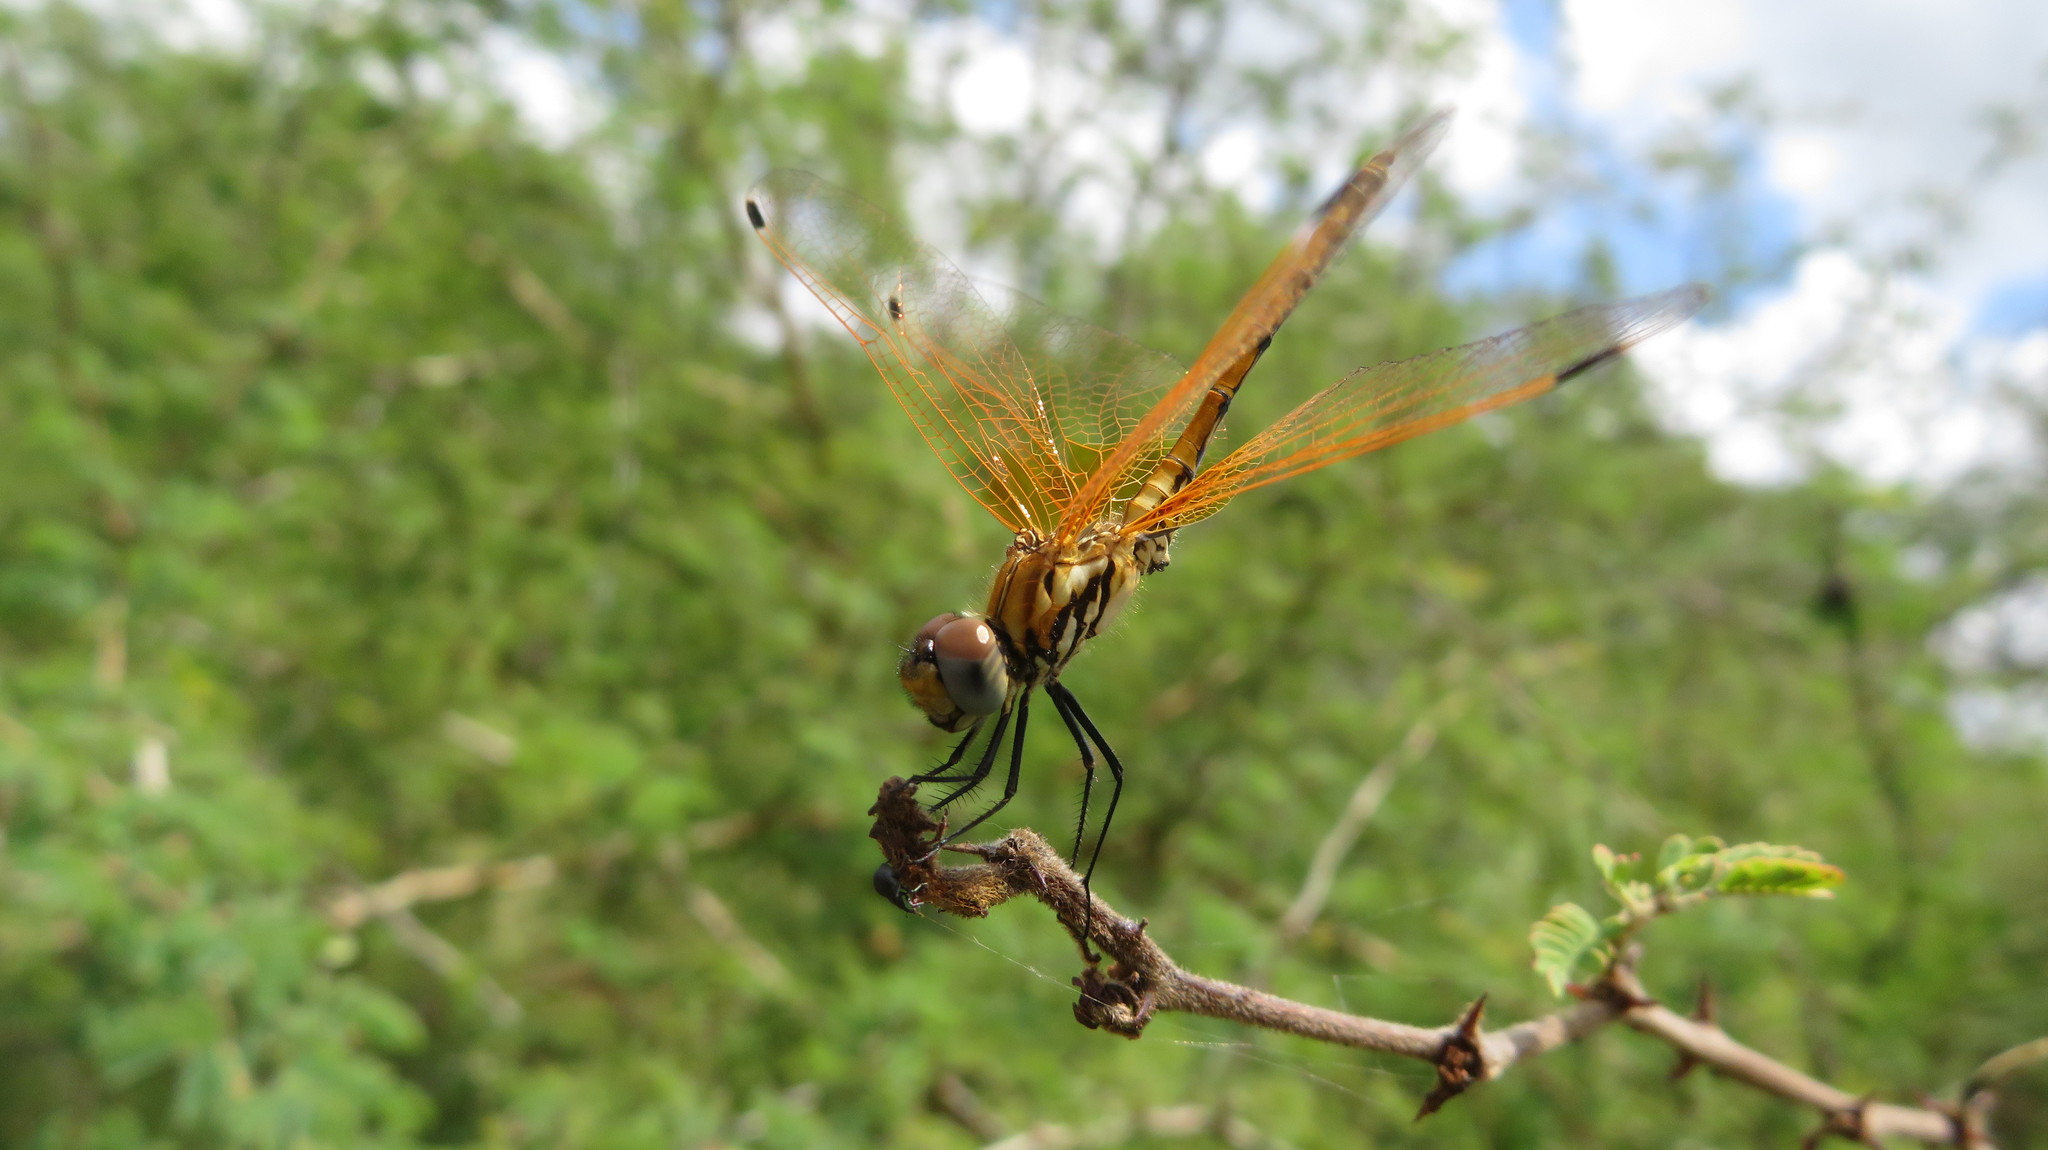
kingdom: Animalia
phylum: Arthropoda
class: Insecta
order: Odonata
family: Libellulidae
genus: Trithemis
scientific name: Trithemis arteriosa
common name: Red-veined dropwing
